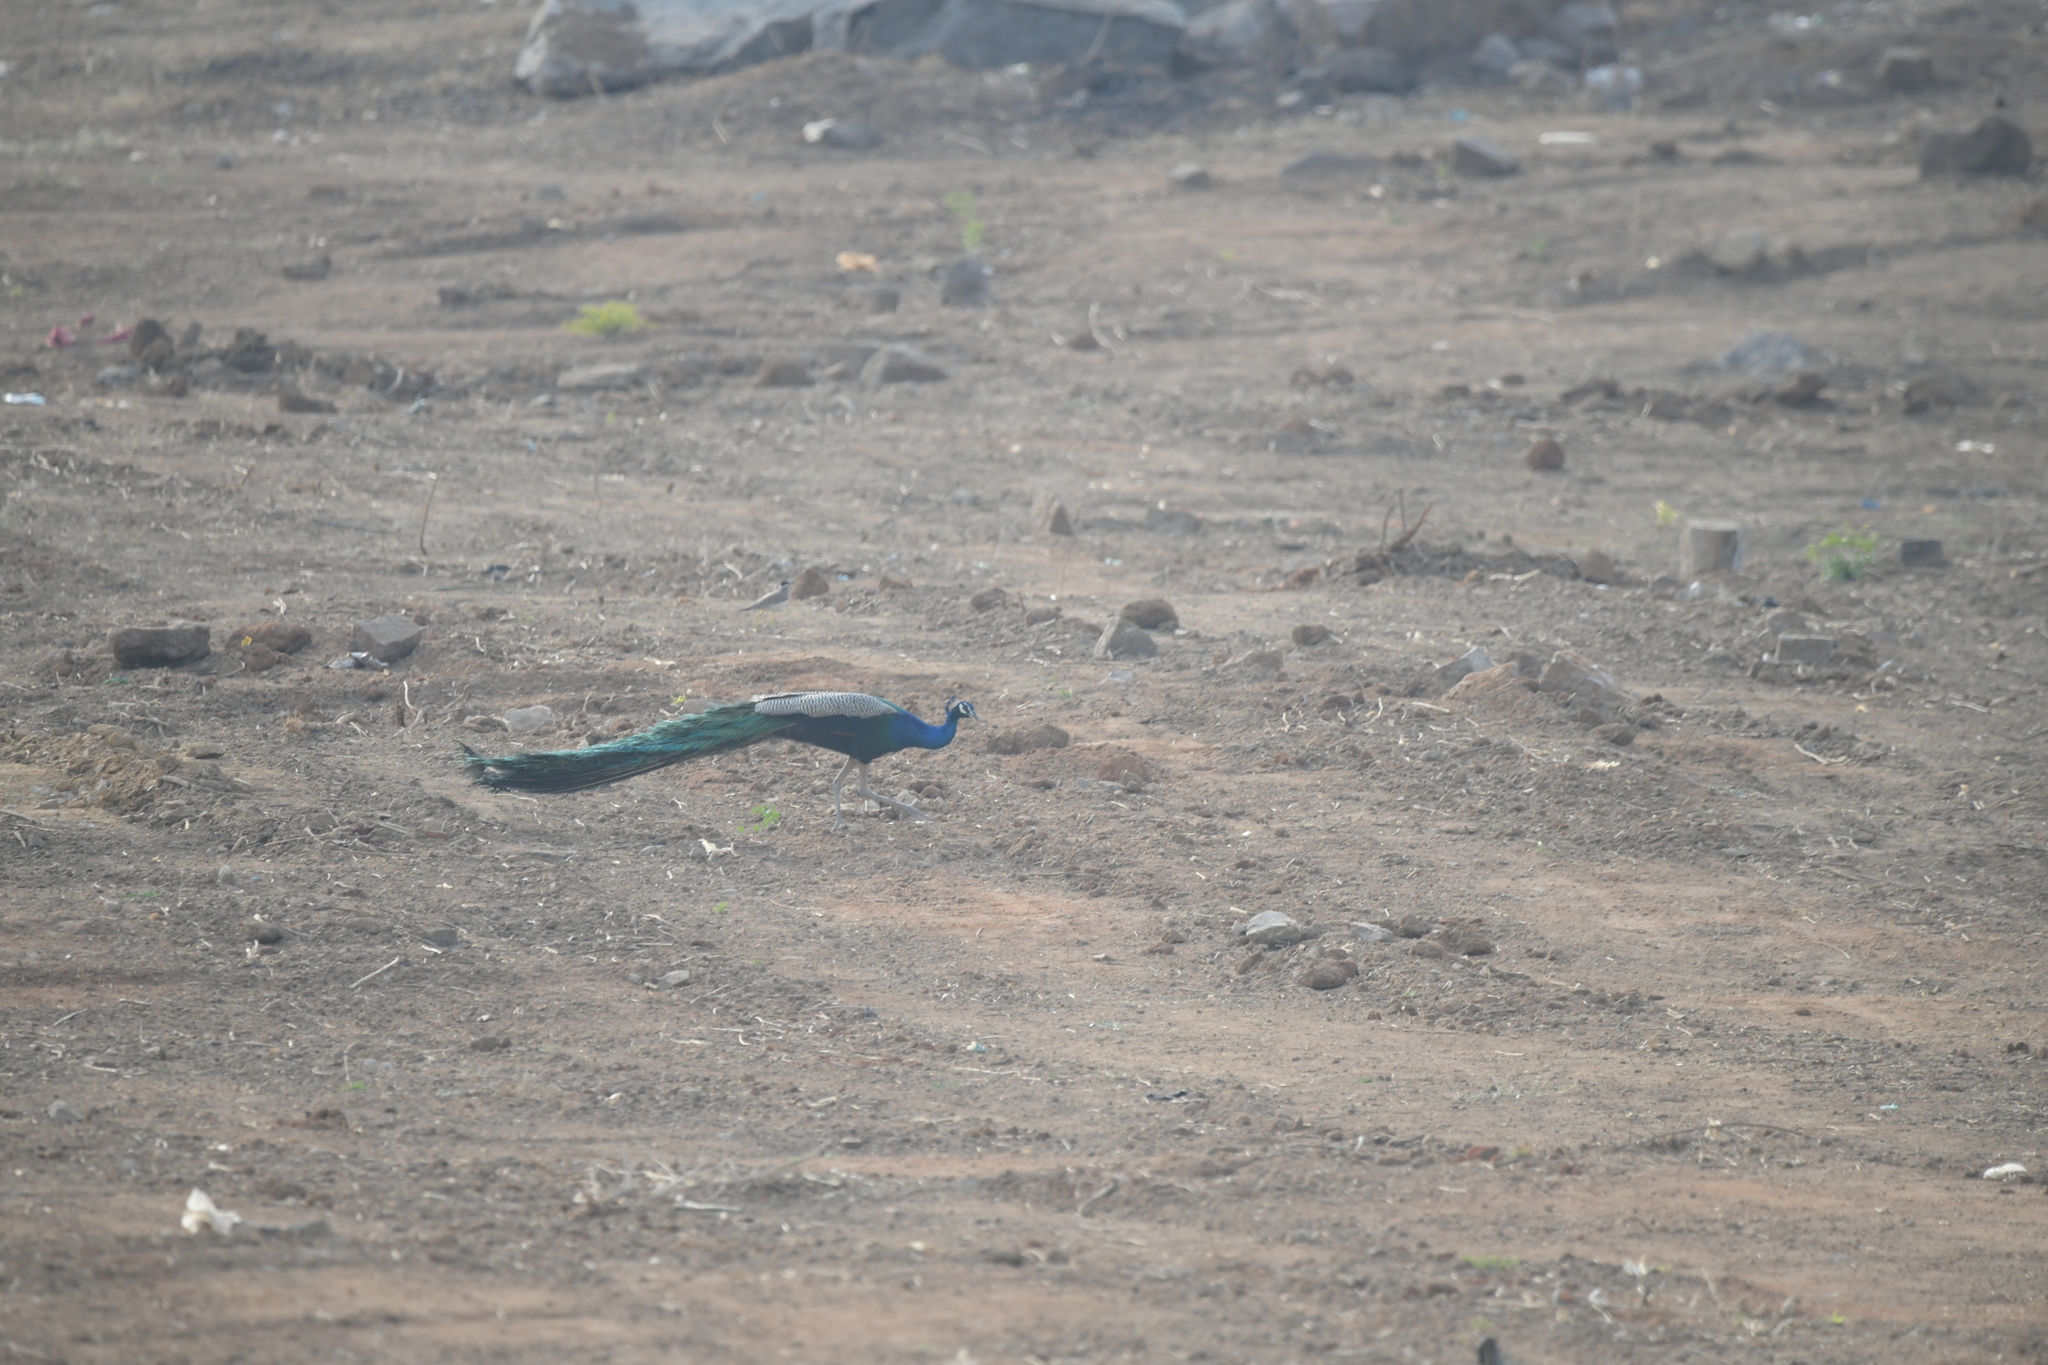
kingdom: Animalia
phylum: Chordata
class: Aves
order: Galliformes
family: Phasianidae
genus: Pavo
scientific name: Pavo cristatus
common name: Indian peafowl
